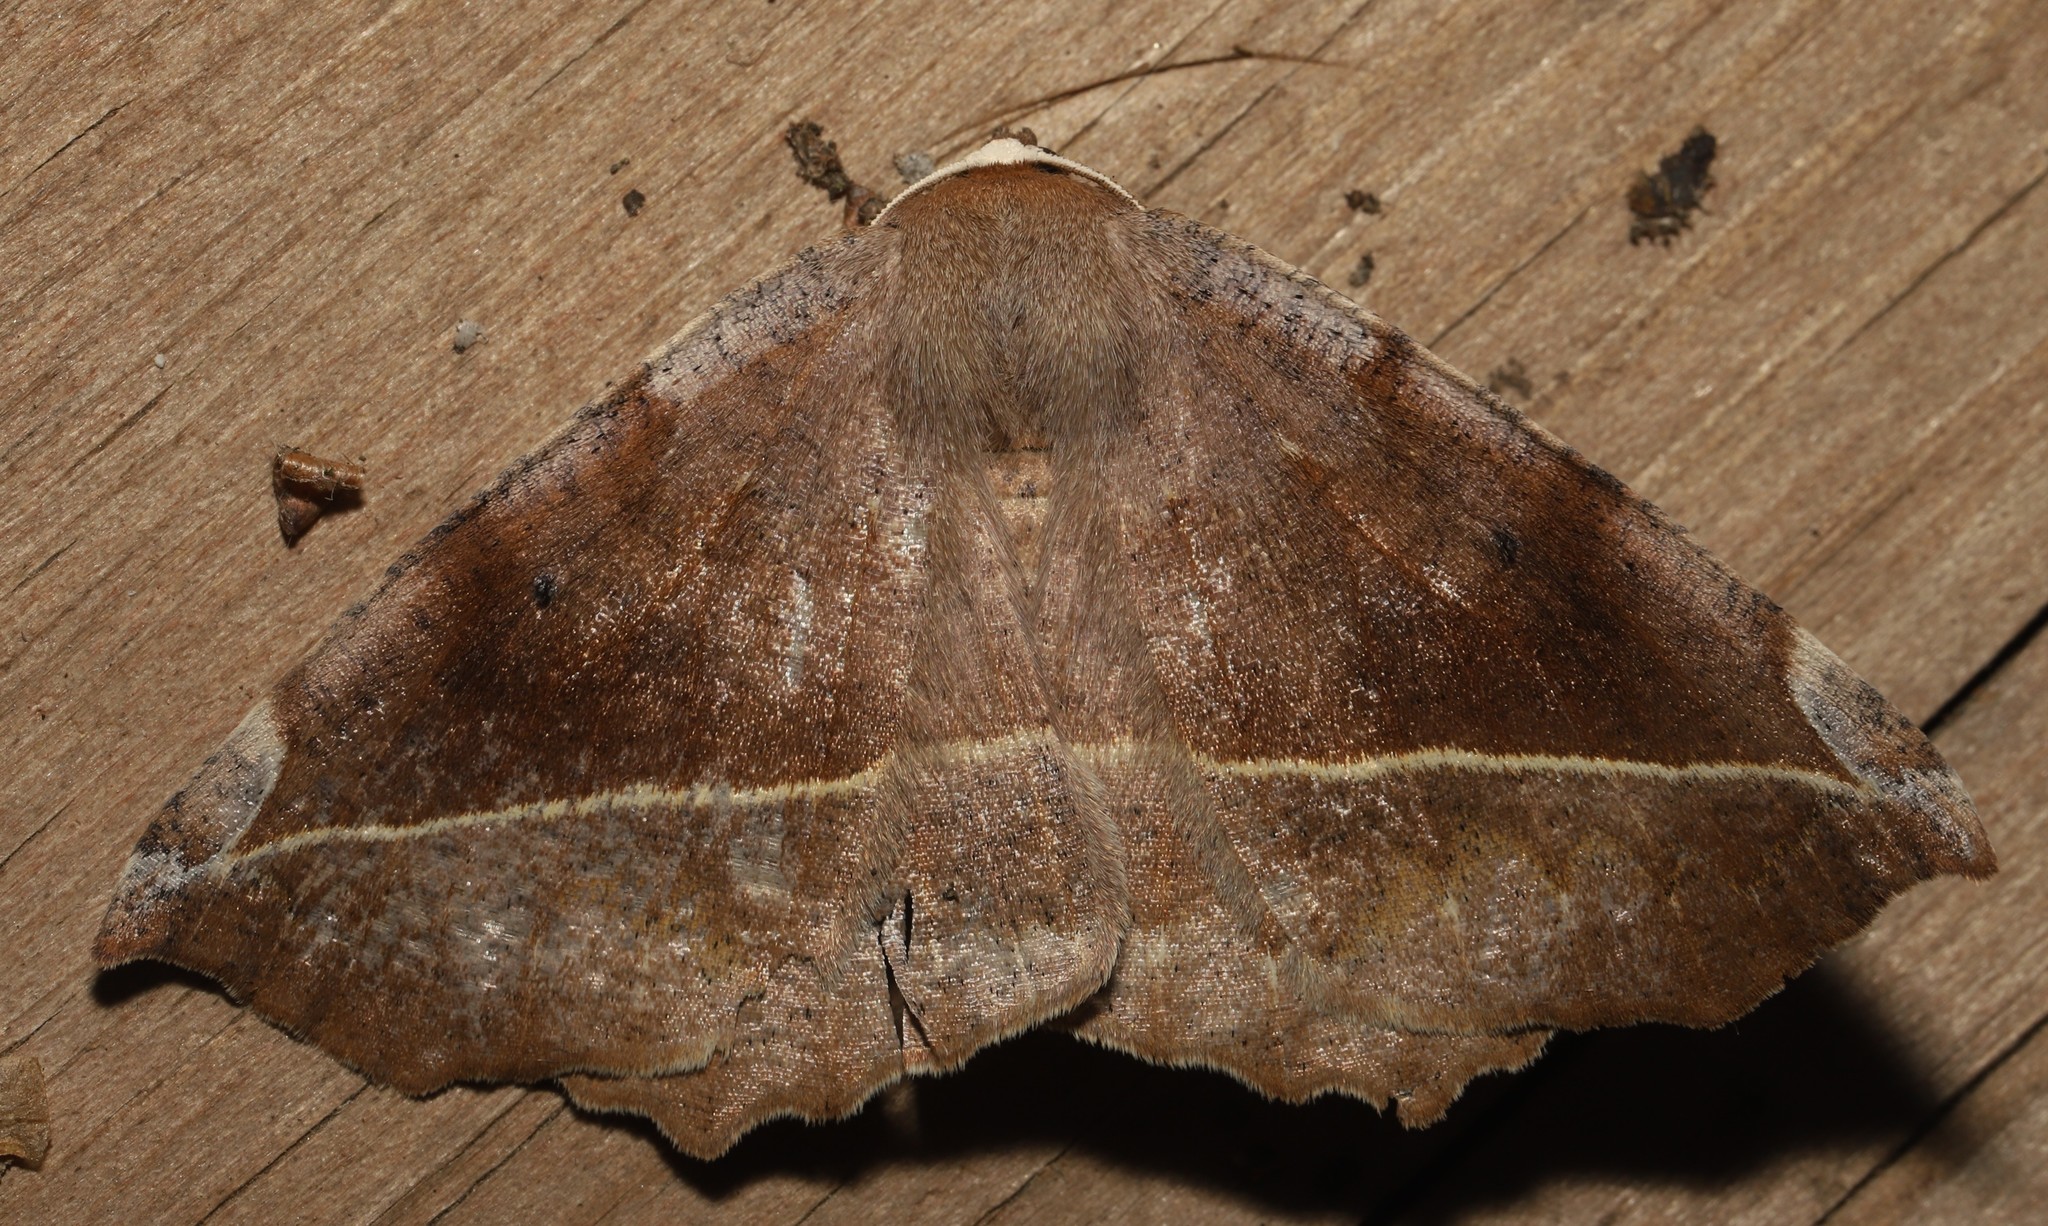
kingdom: Animalia
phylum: Arthropoda
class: Insecta
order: Lepidoptera
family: Geometridae
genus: Eutrapela
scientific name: Eutrapela clemataria
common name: Curved-toothed geometer
